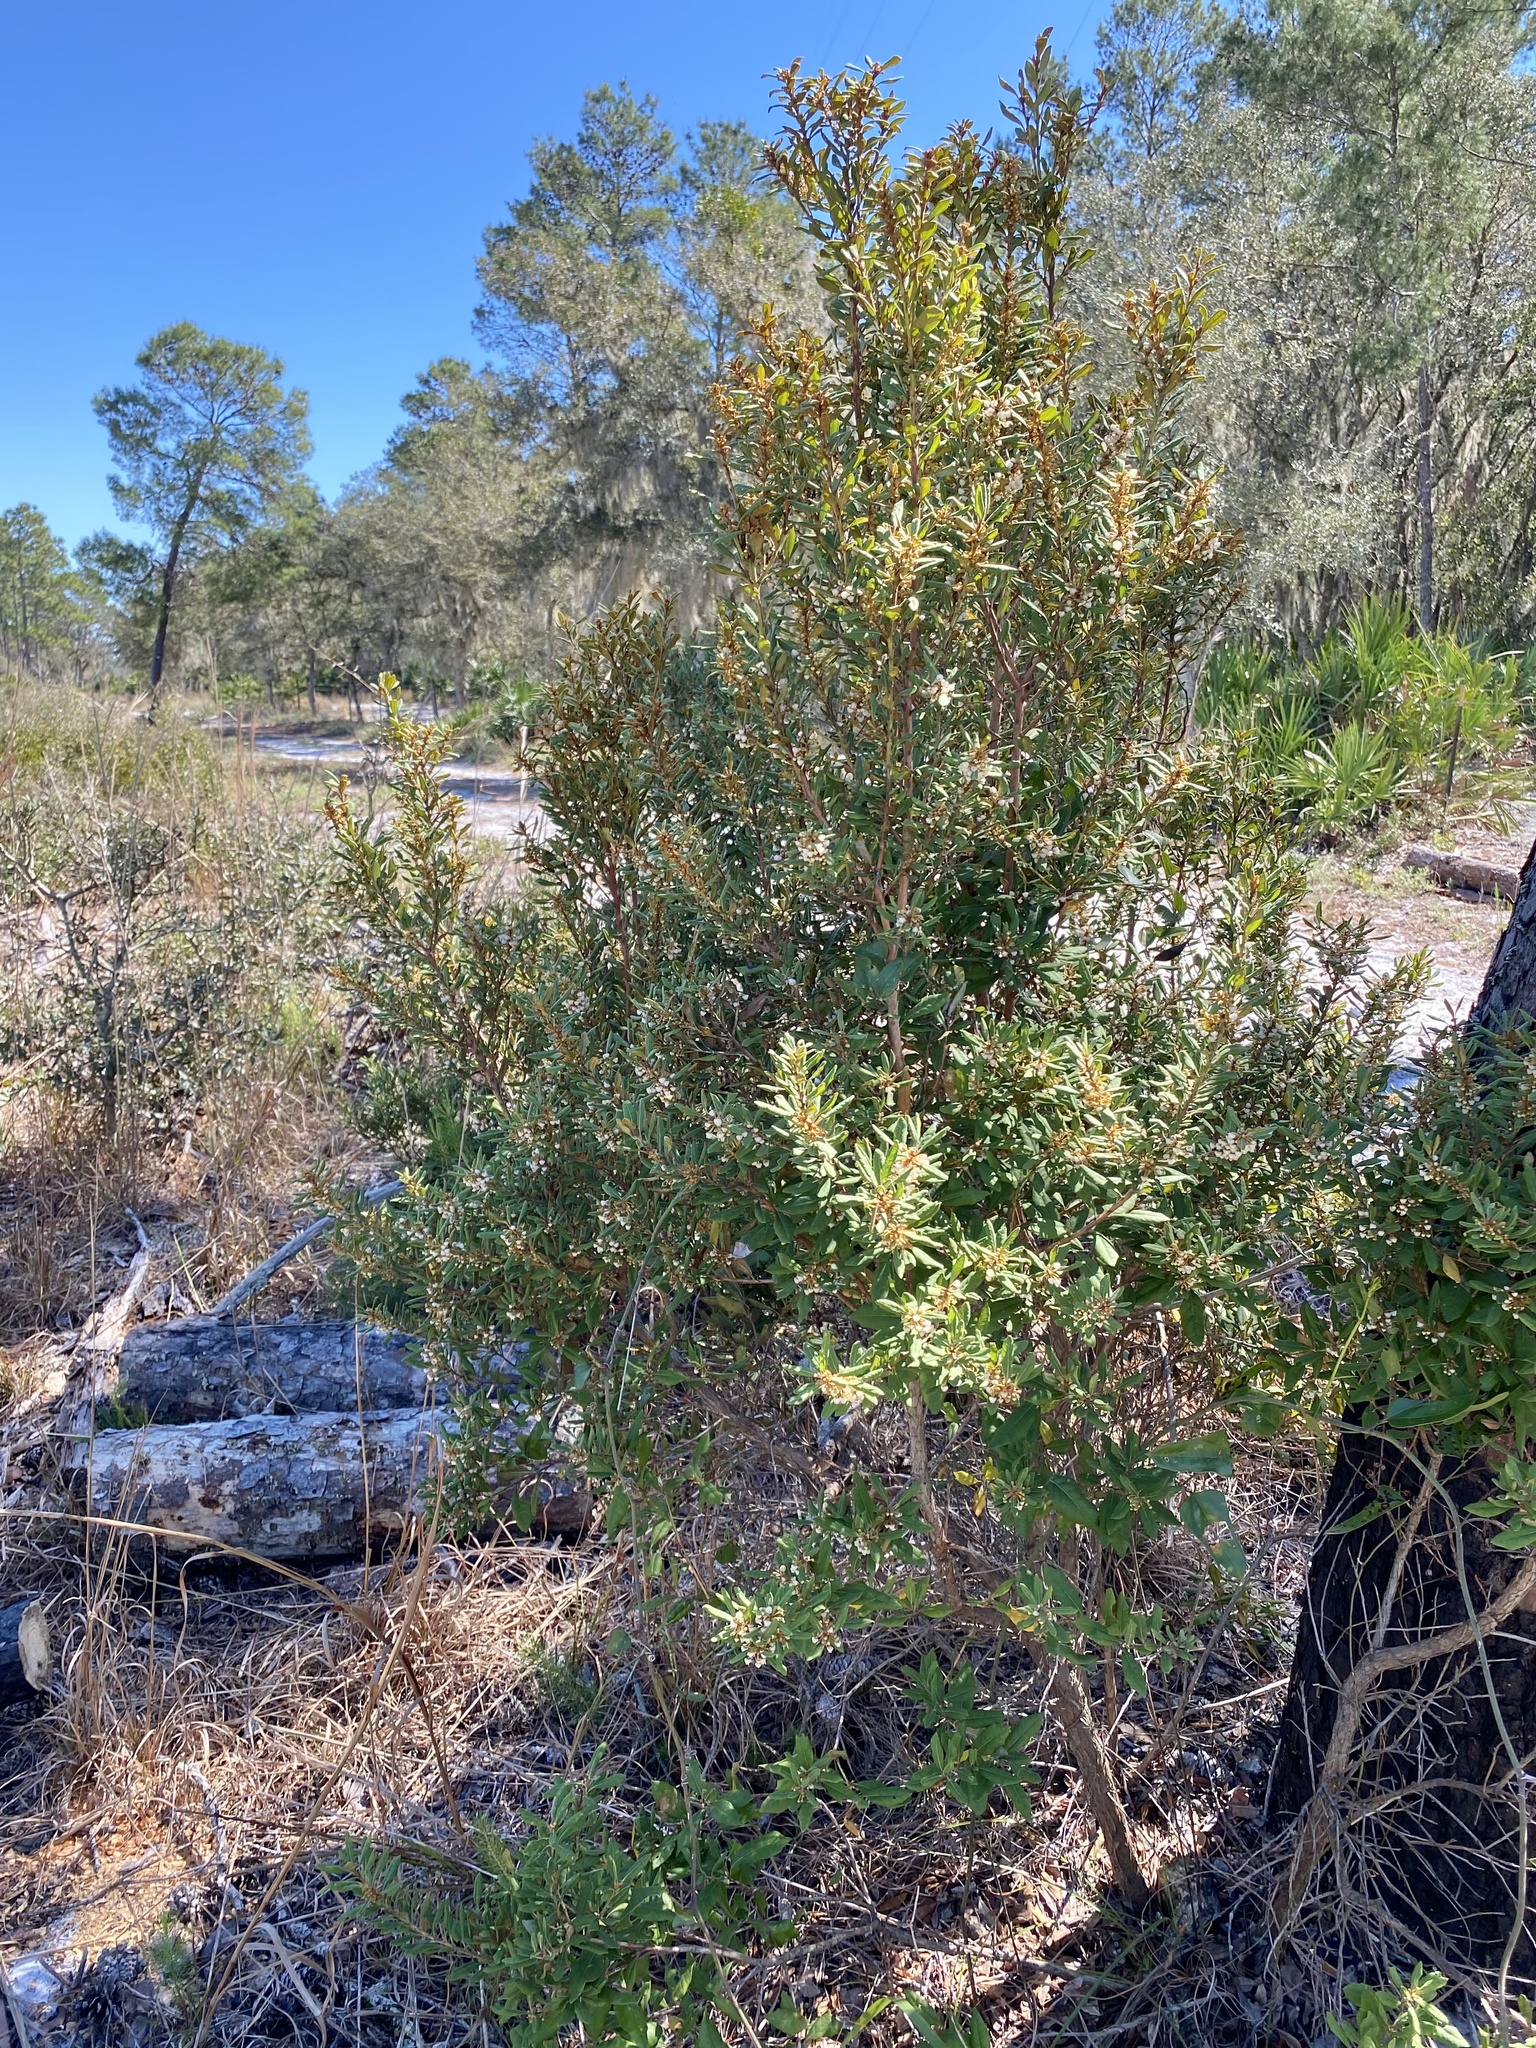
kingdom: Plantae
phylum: Tracheophyta
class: Magnoliopsida
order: Ericales
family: Ericaceae
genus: Lyonia
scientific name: Lyonia ferruginea
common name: Rusty lyonia
